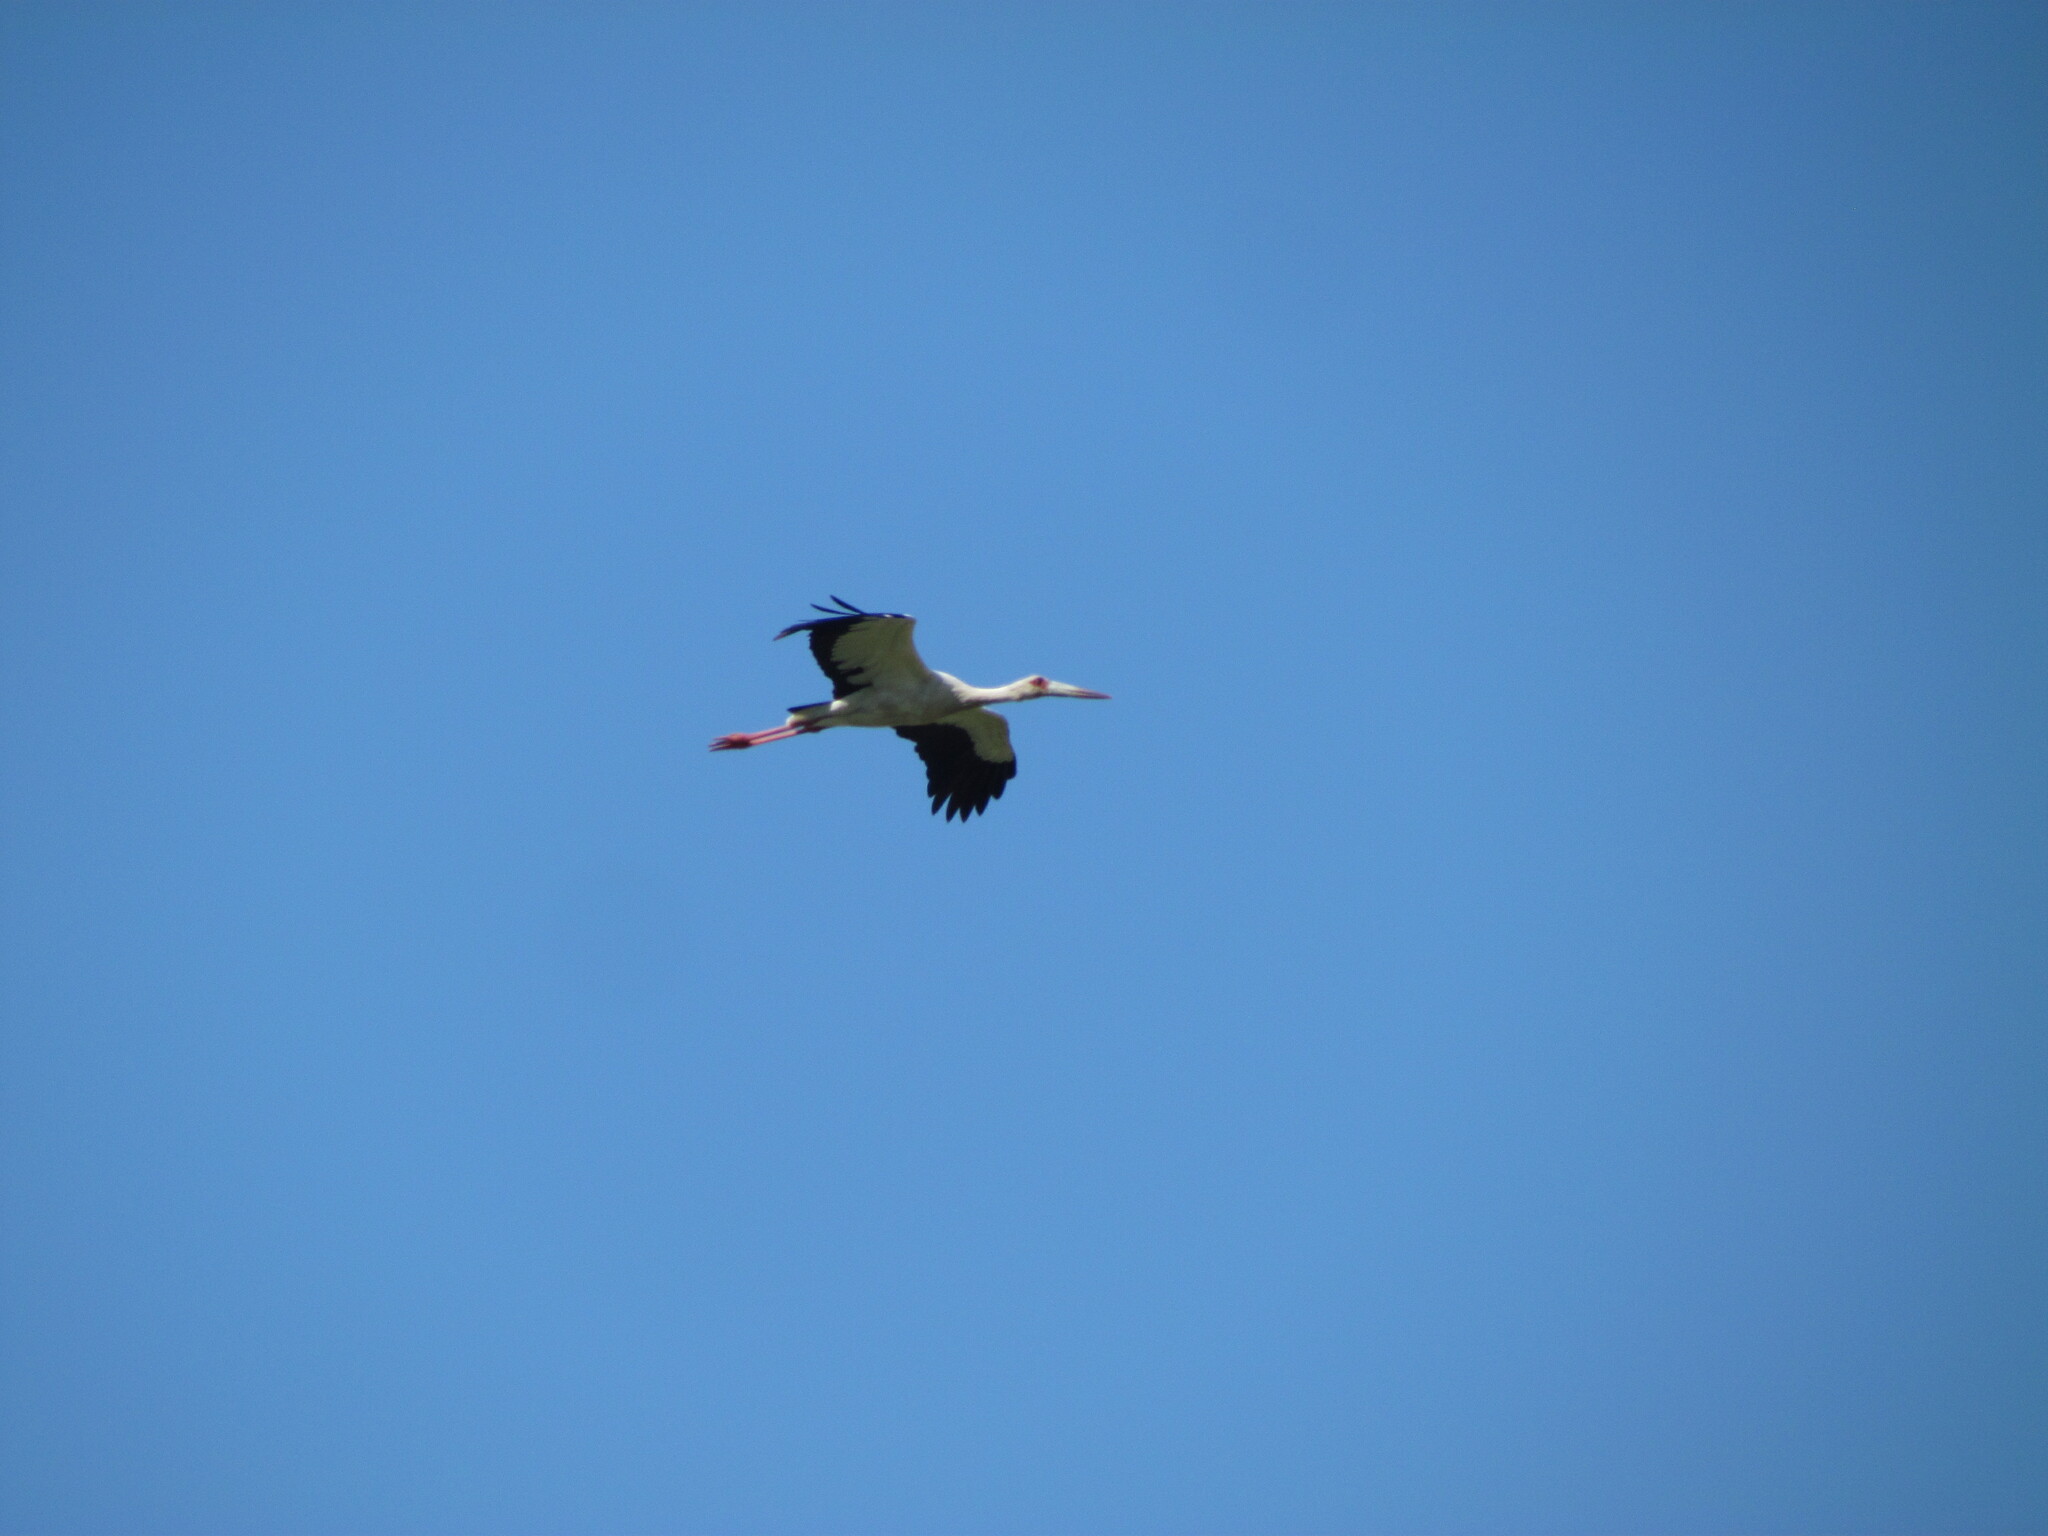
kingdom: Animalia
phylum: Chordata
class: Aves
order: Ciconiiformes
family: Ciconiidae
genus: Ciconia
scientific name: Ciconia maguari
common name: Maguari stork
